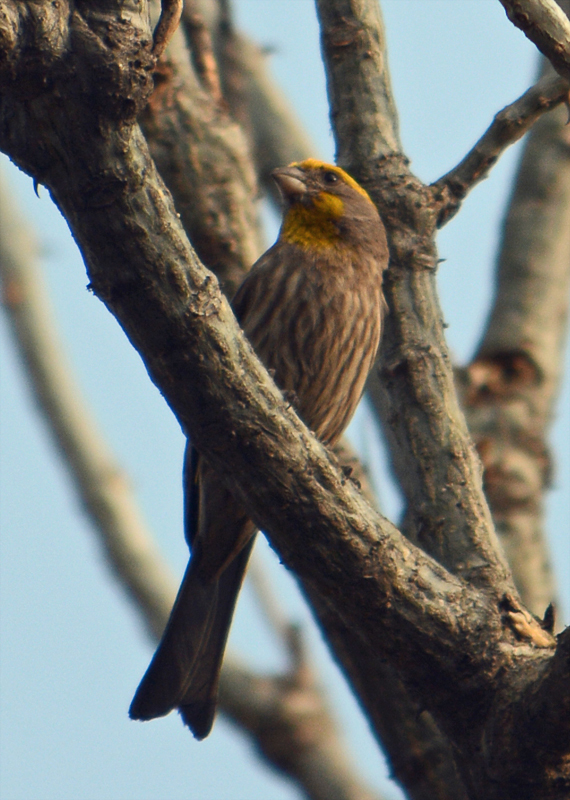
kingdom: Animalia
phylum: Chordata
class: Aves
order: Passeriformes
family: Fringillidae
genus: Haemorhous
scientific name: Haemorhous mexicanus
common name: House finch
